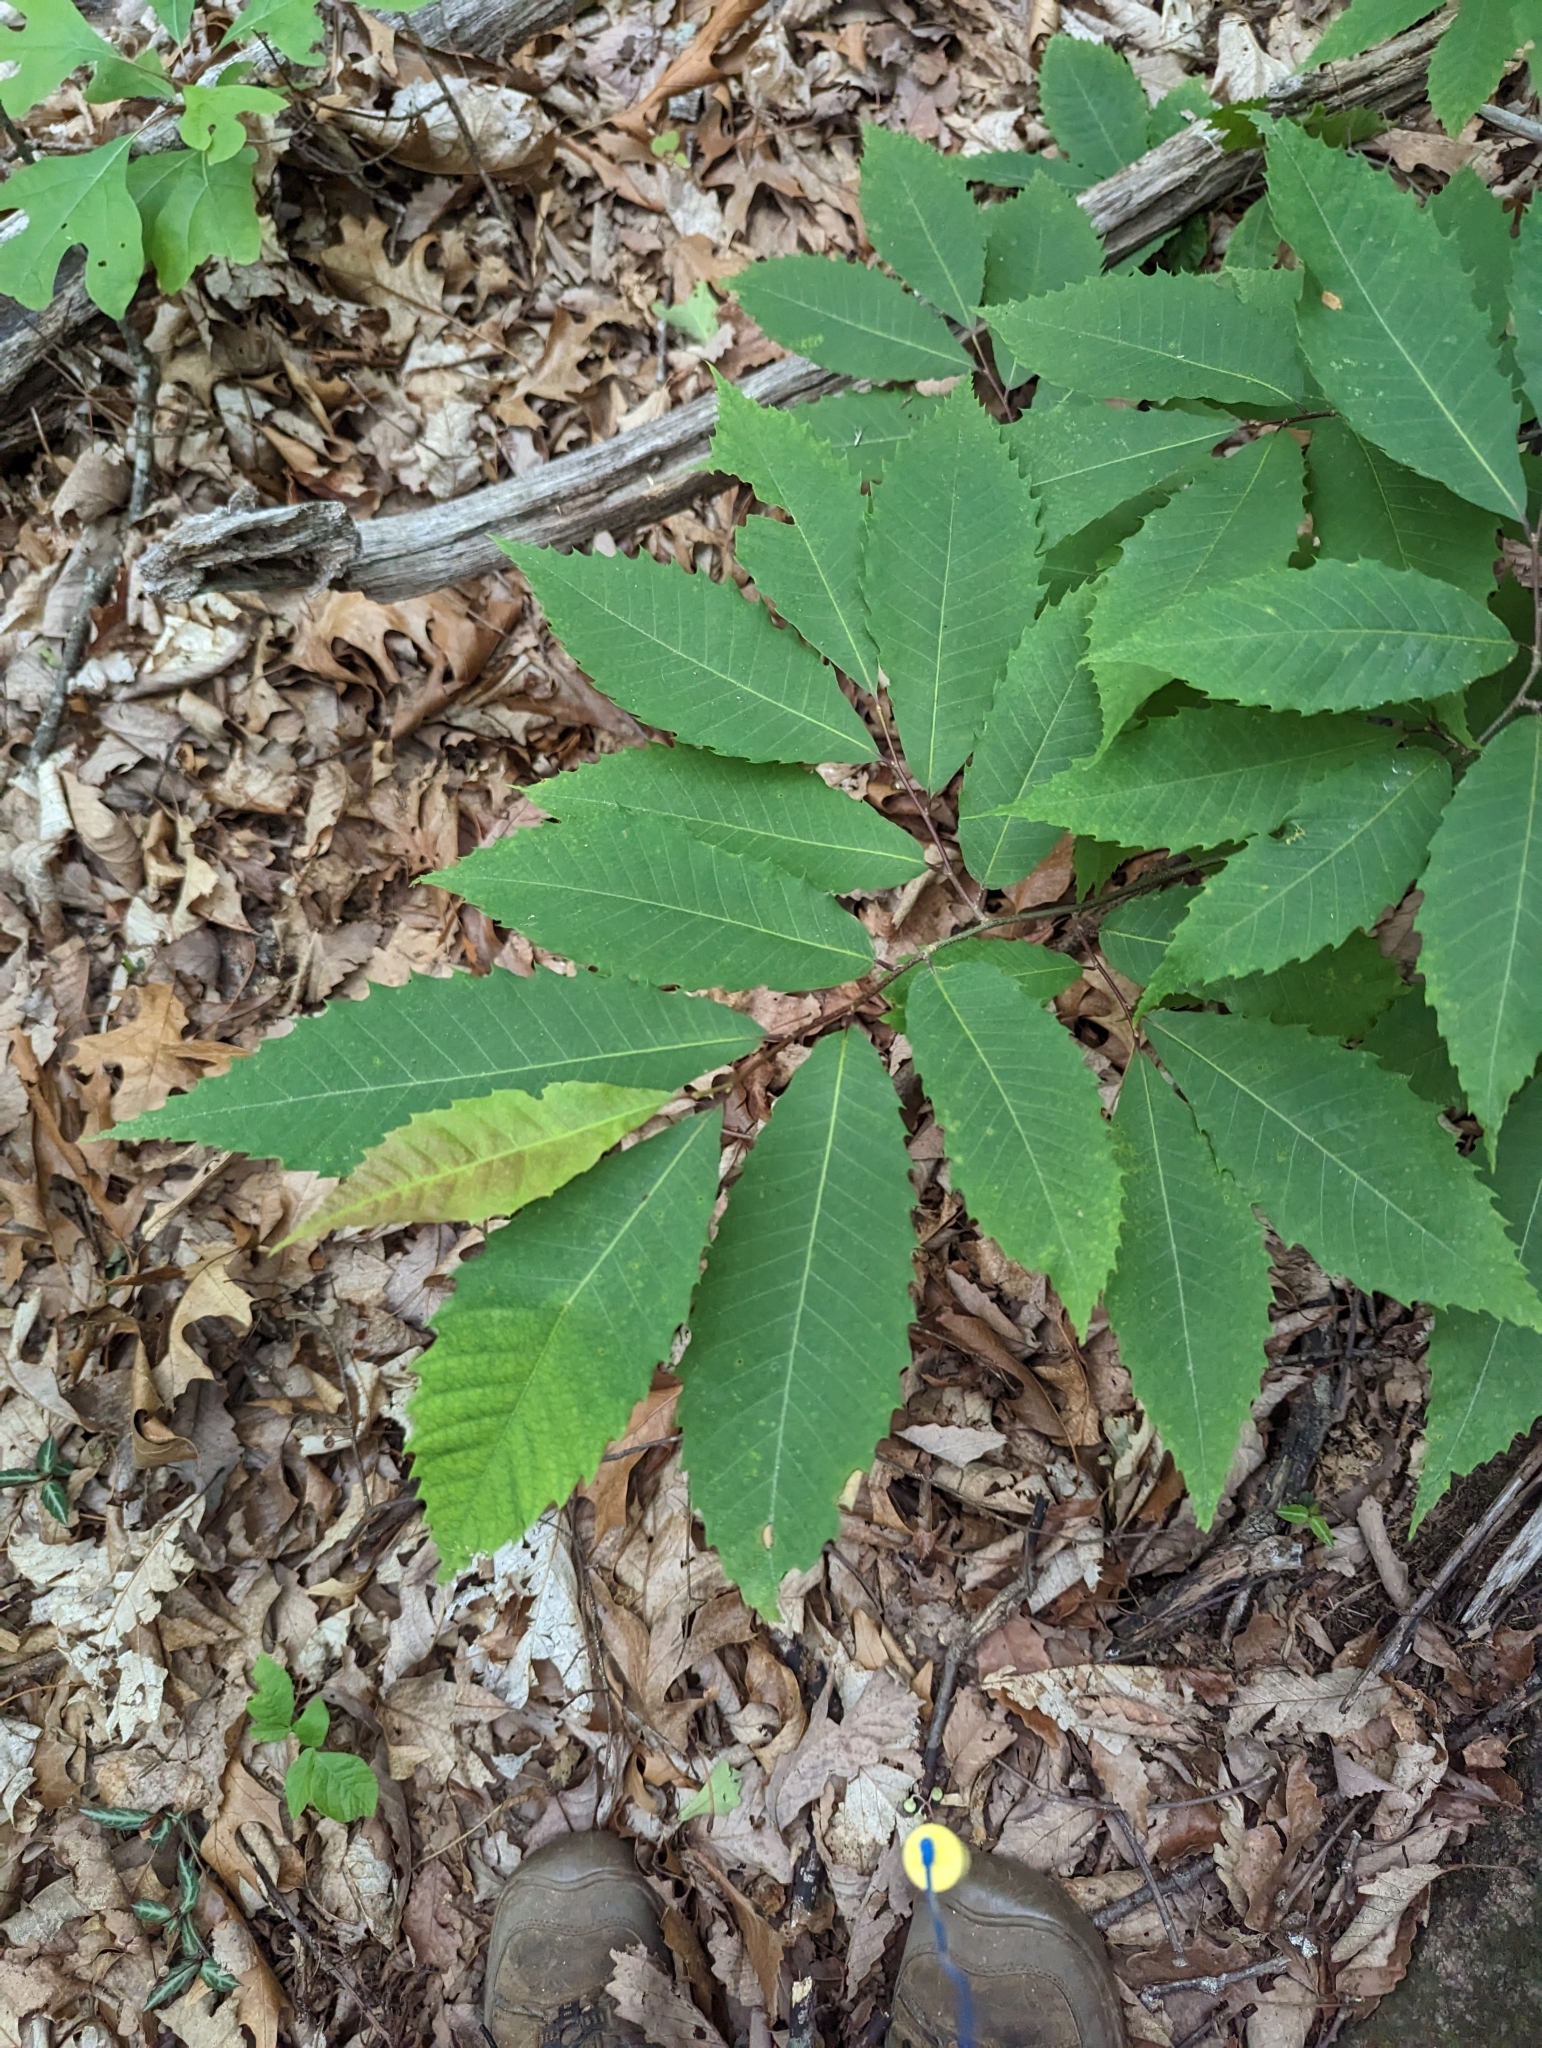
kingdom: Plantae
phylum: Tracheophyta
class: Magnoliopsida
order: Fagales
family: Fagaceae
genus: Castanea
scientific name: Castanea dentata
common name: American chestnut
